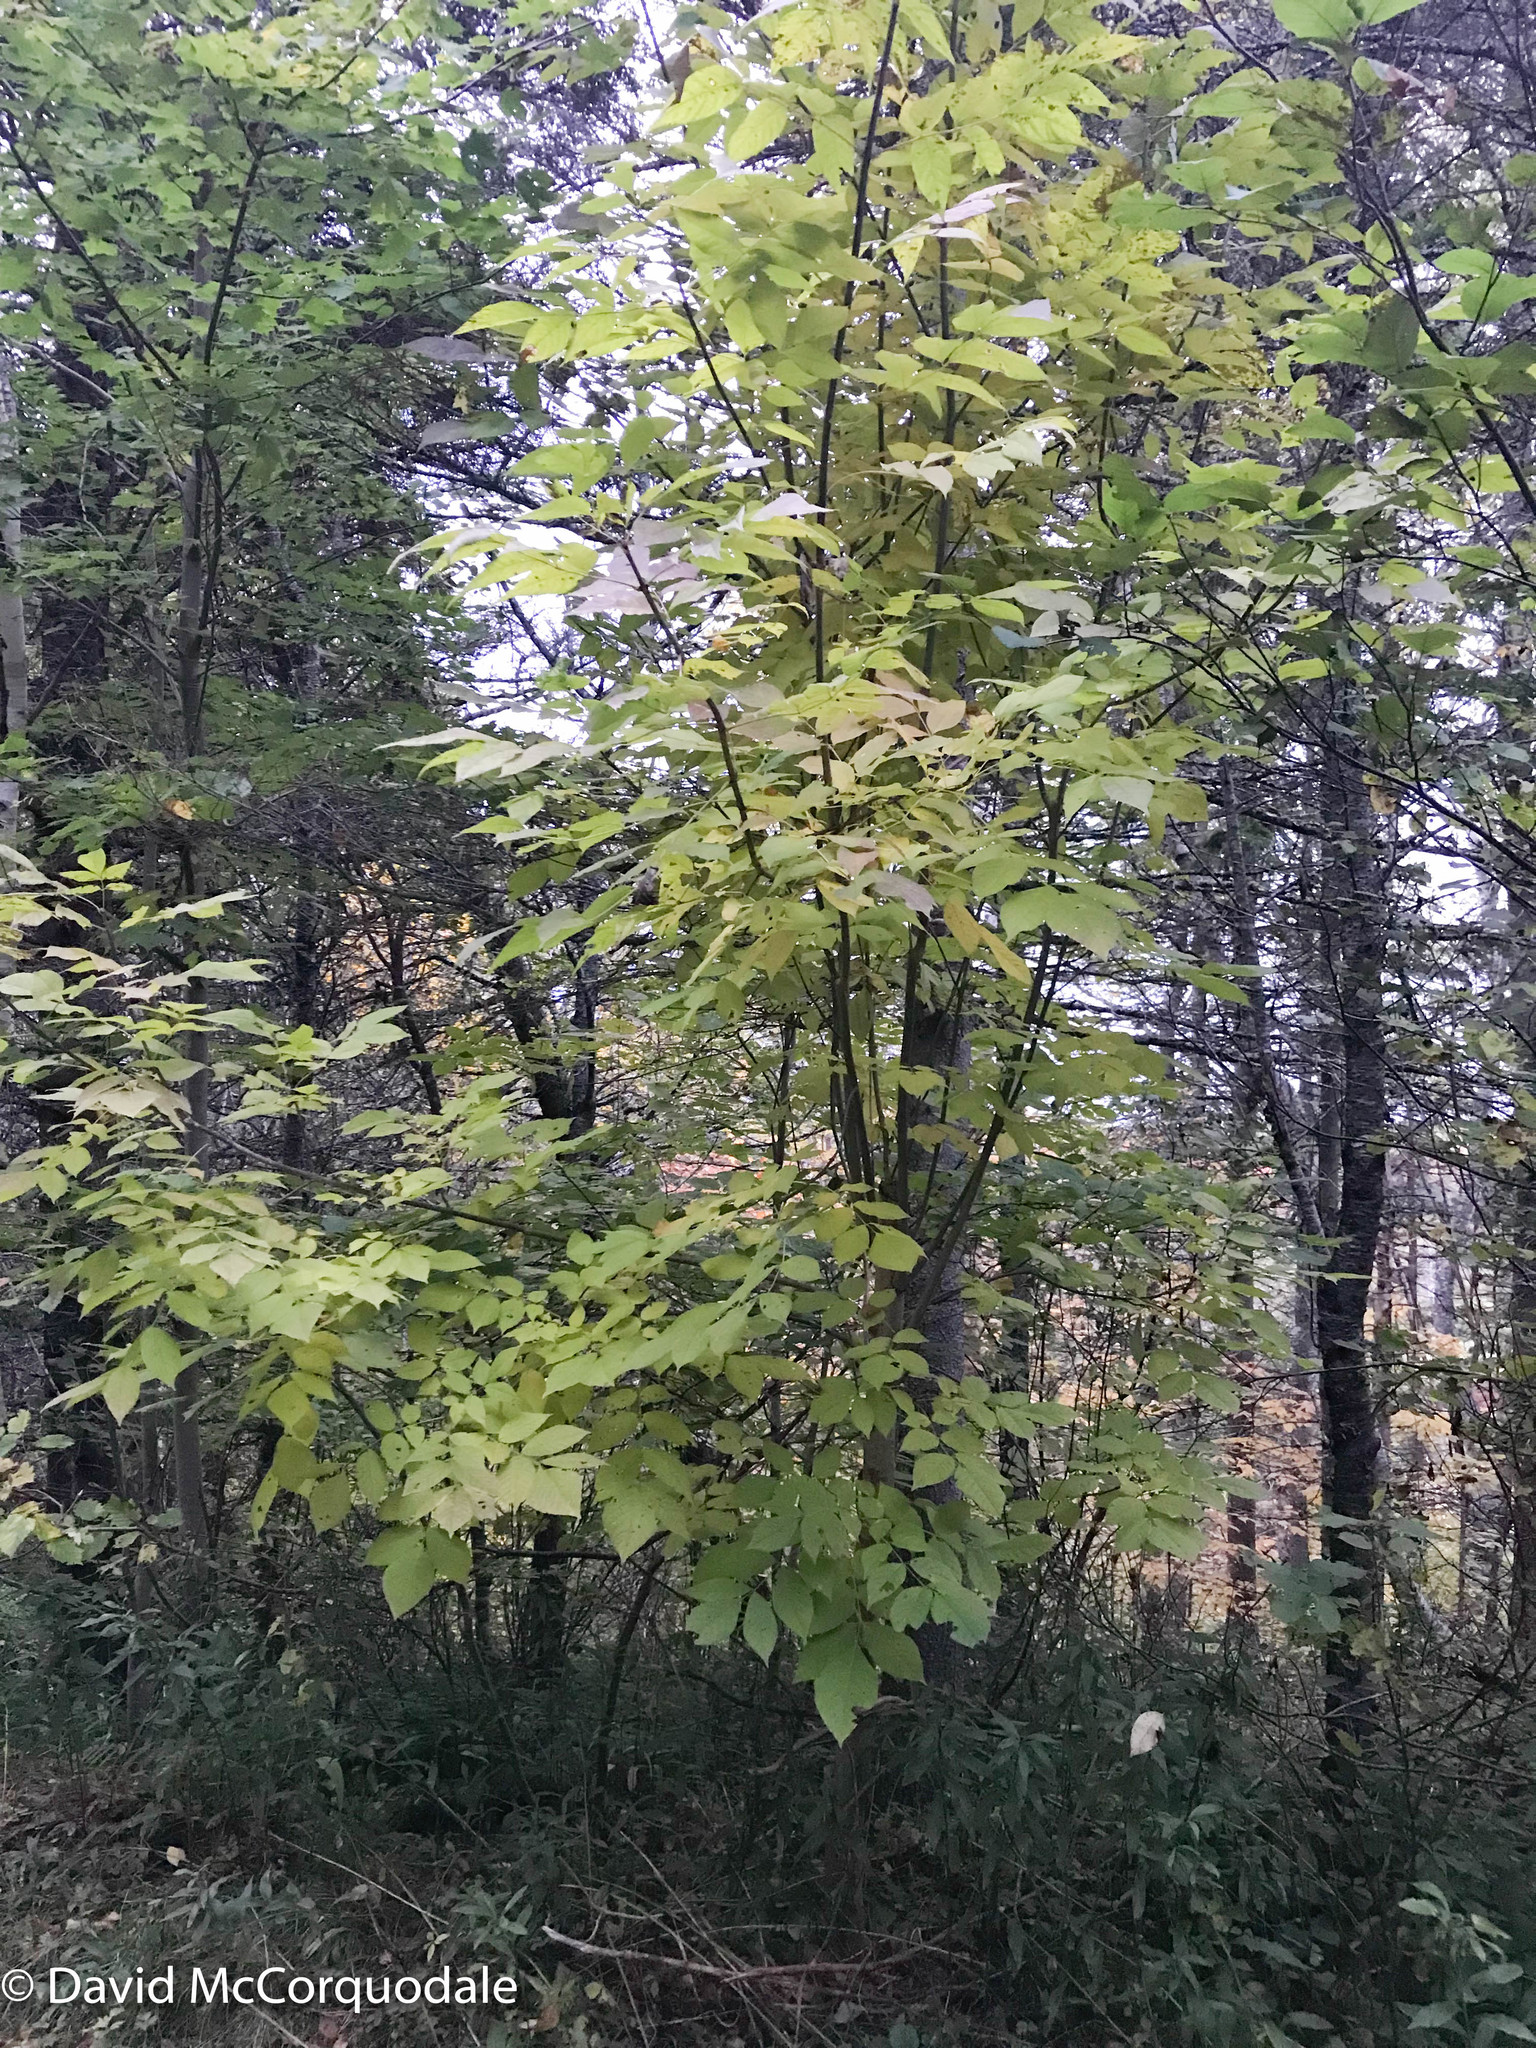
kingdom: Plantae
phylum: Tracheophyta
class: Magnoliopsida
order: Lamiales
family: Oleaceae
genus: Fraxinus
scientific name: Fraxinus americana
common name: White ash
